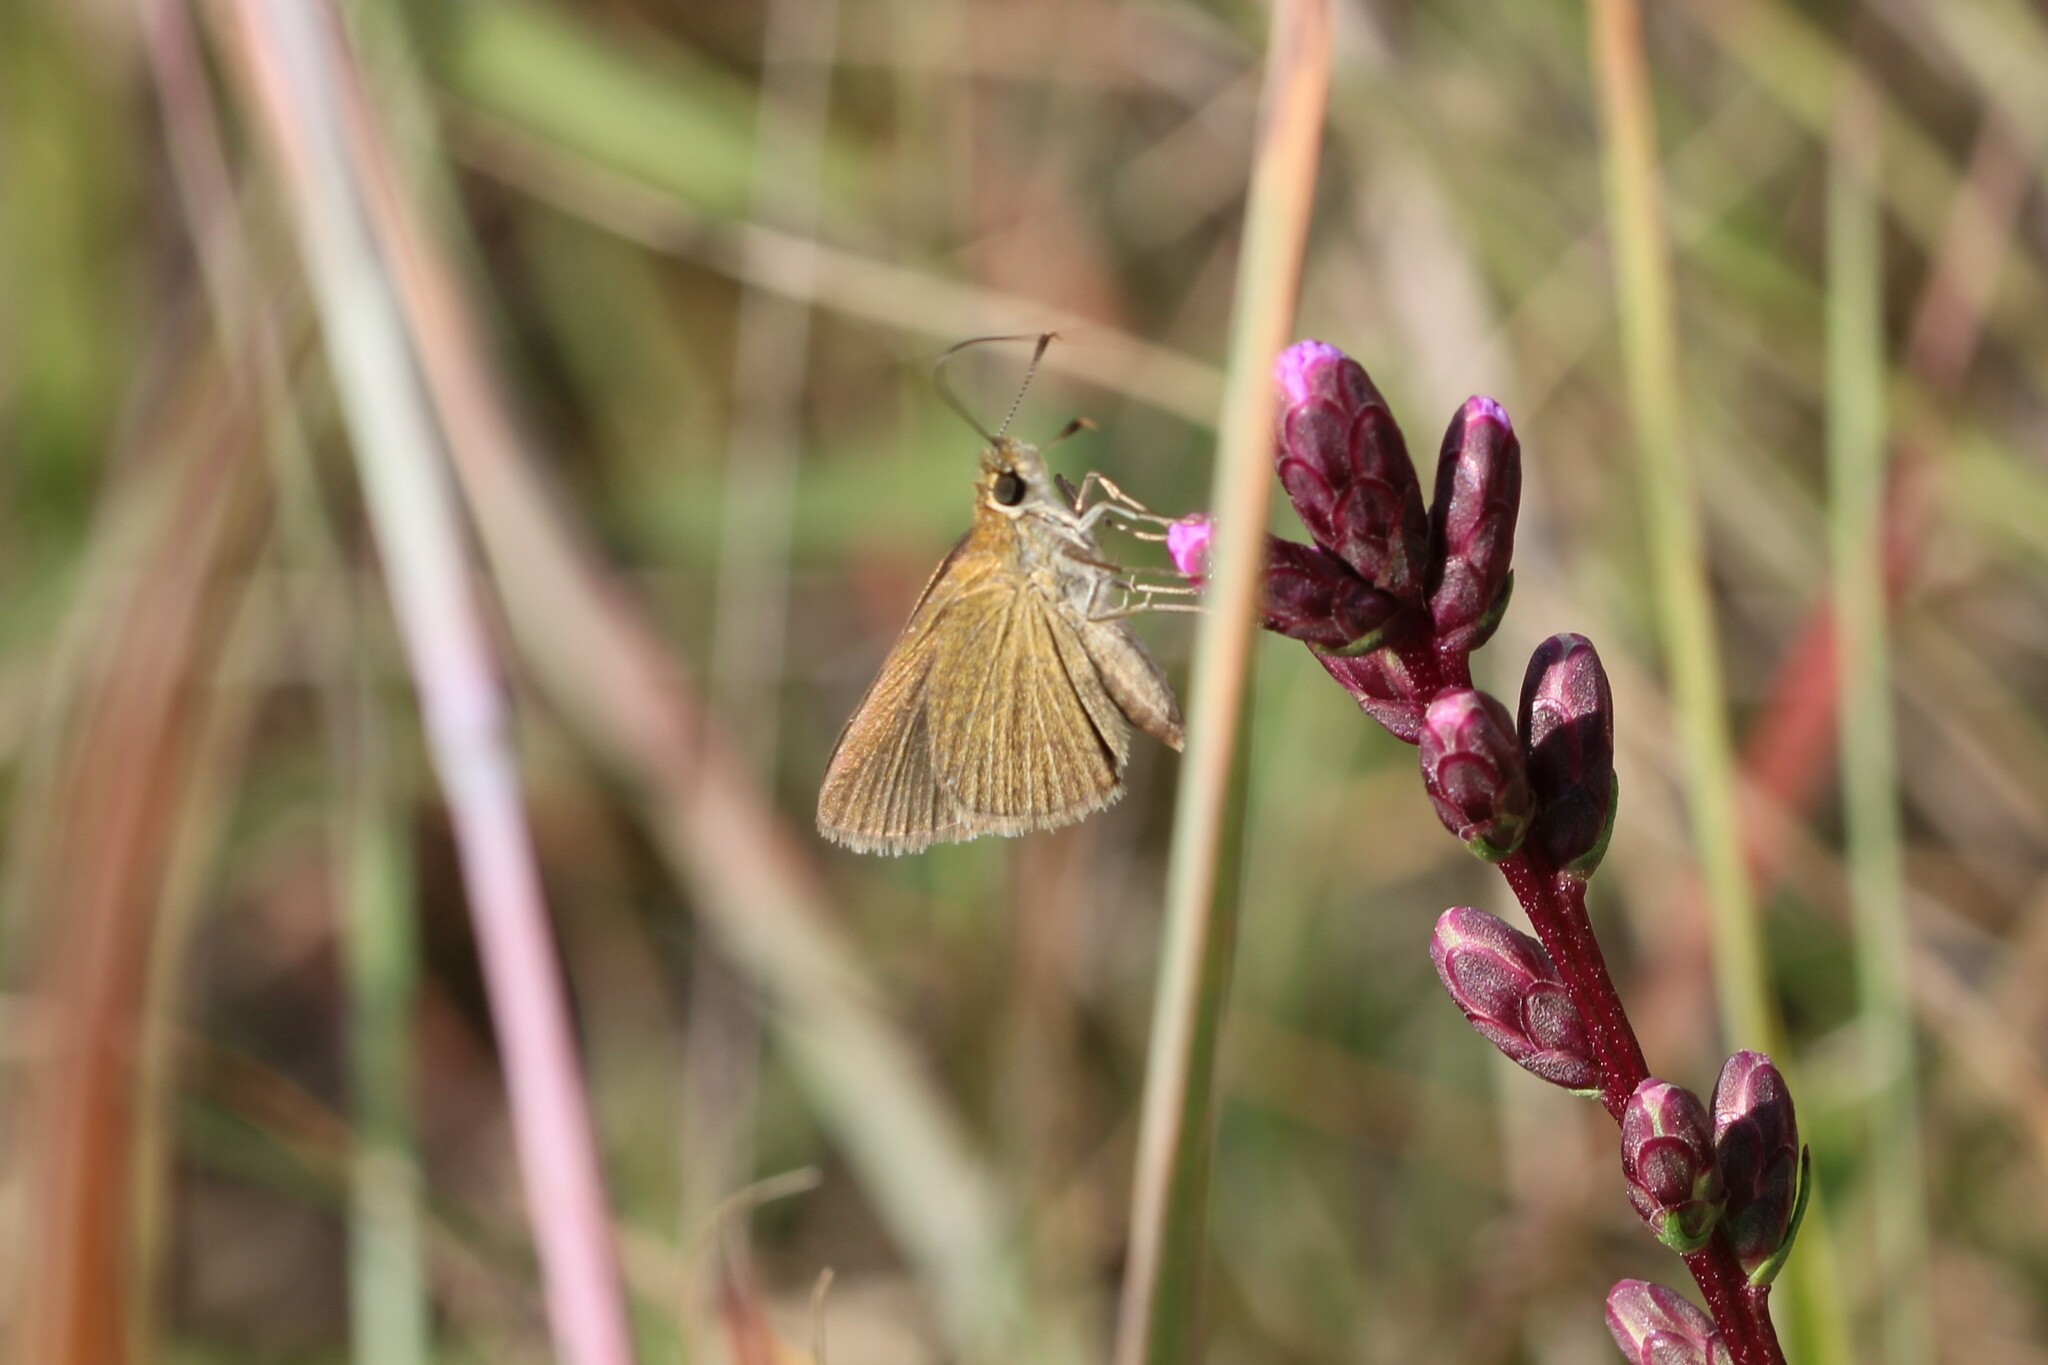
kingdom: Animalia
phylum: Arthropoda
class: Insecta
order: Lepidoptera
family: Hesperiidae
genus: Nastra
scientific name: Nastra lherminier
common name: Swarthy skipper
